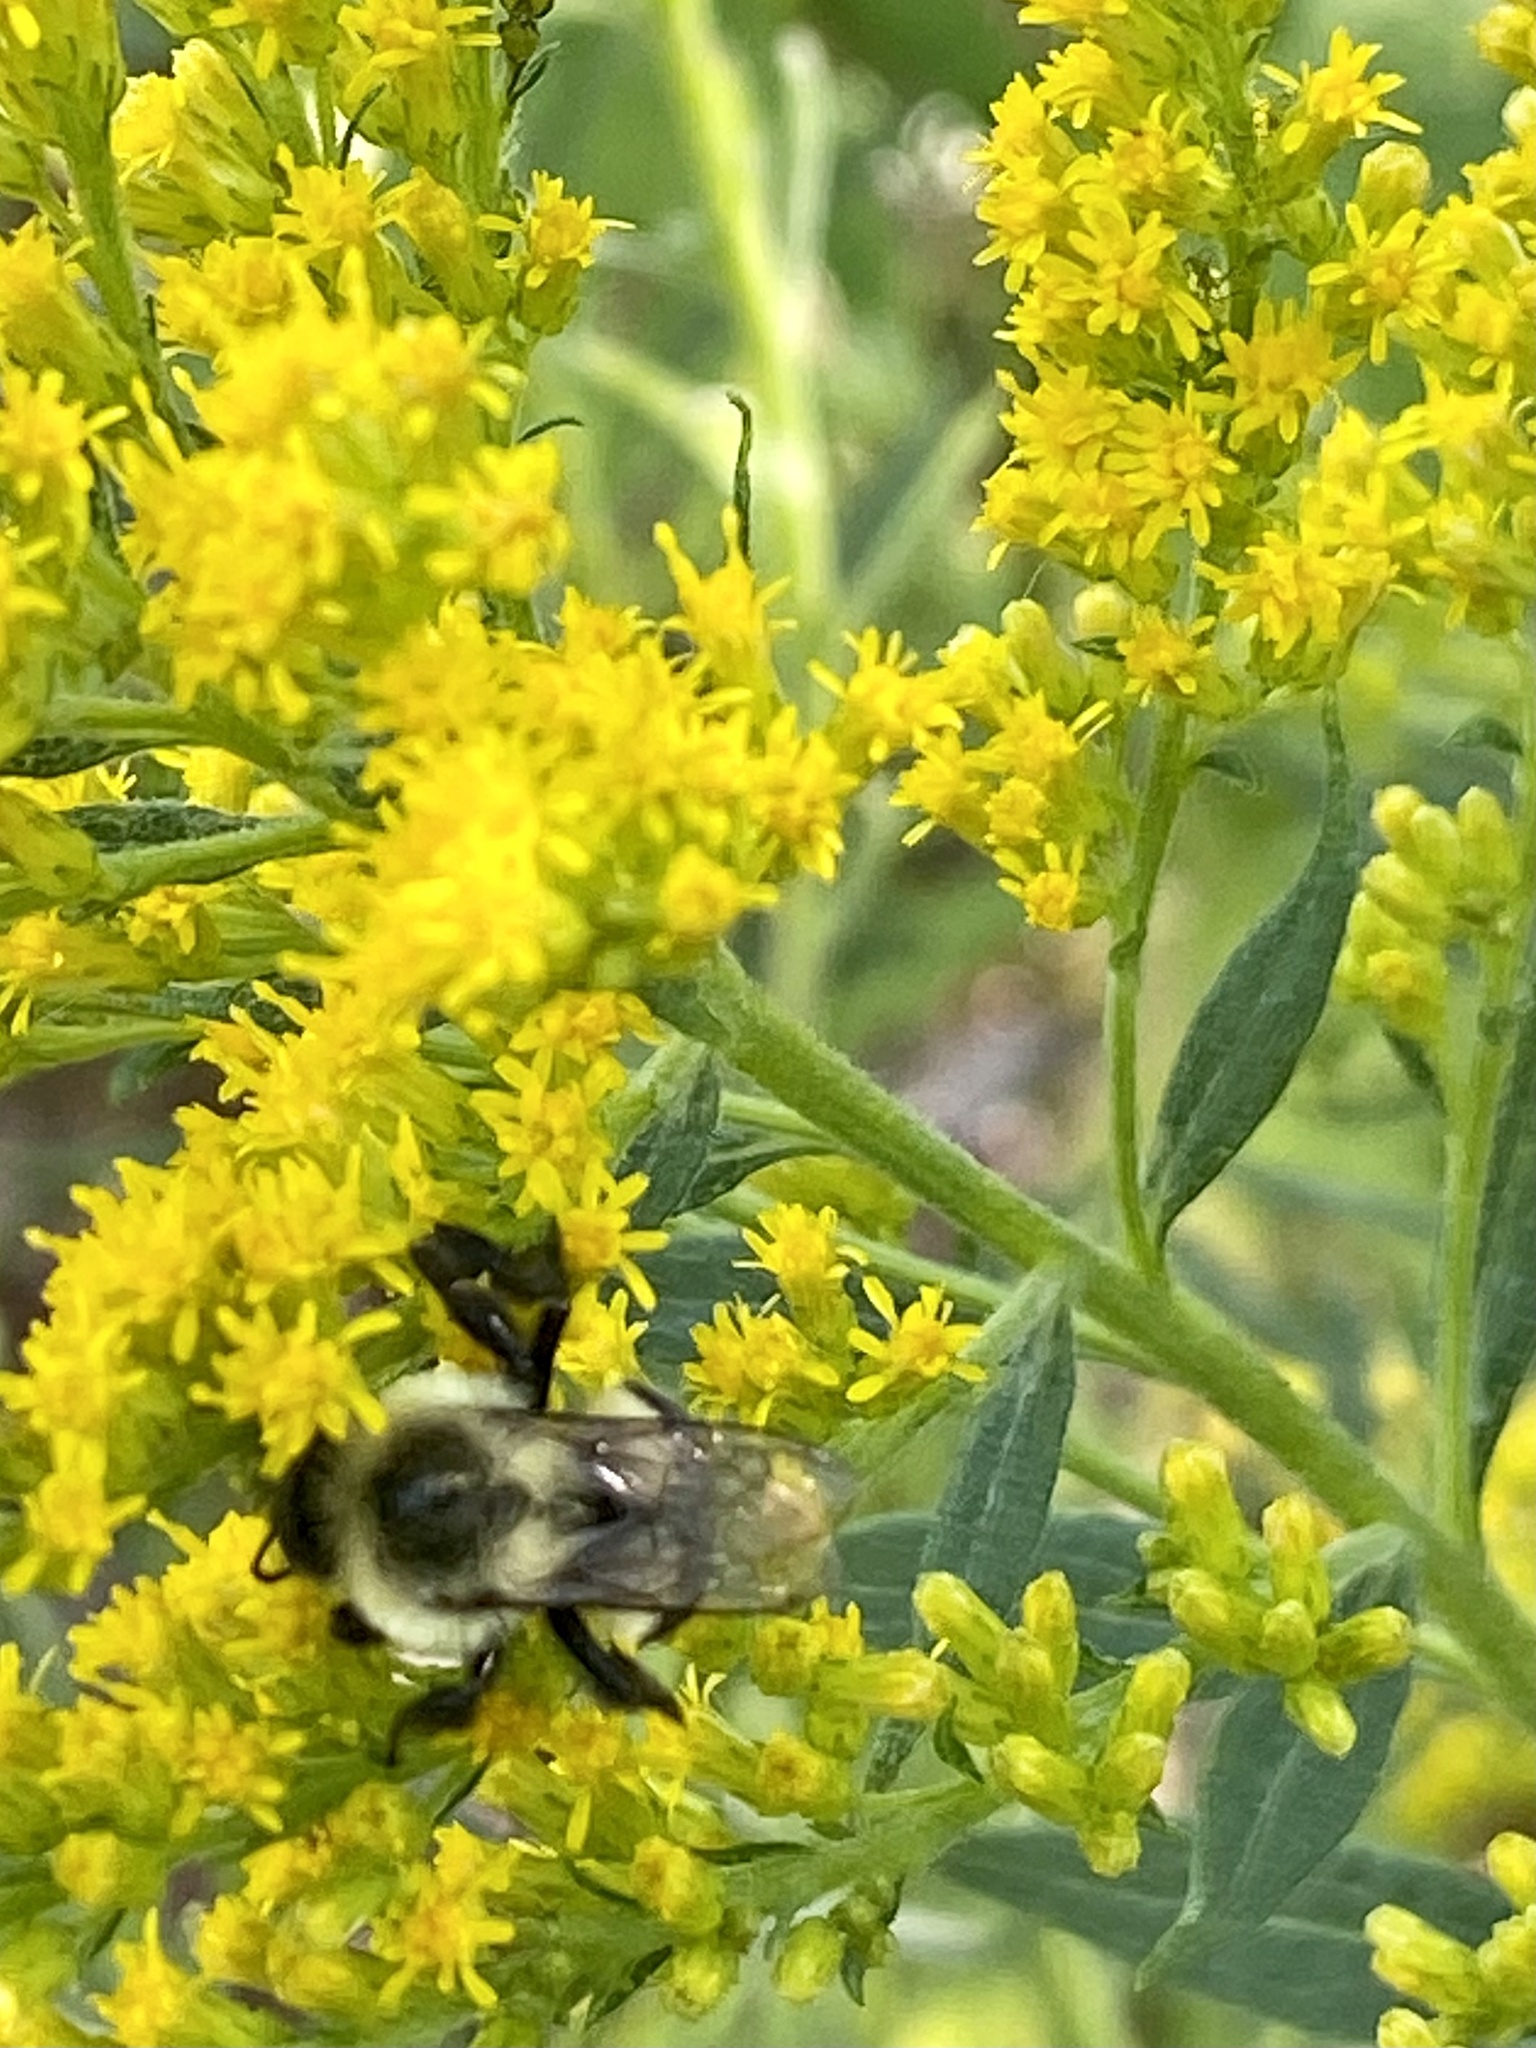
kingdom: Animalia
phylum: Arthropoda
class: Insecta
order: Hymenoptera
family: Apidae
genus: Bombus
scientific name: Bombus impatiens
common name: Common eastern bumble bee
